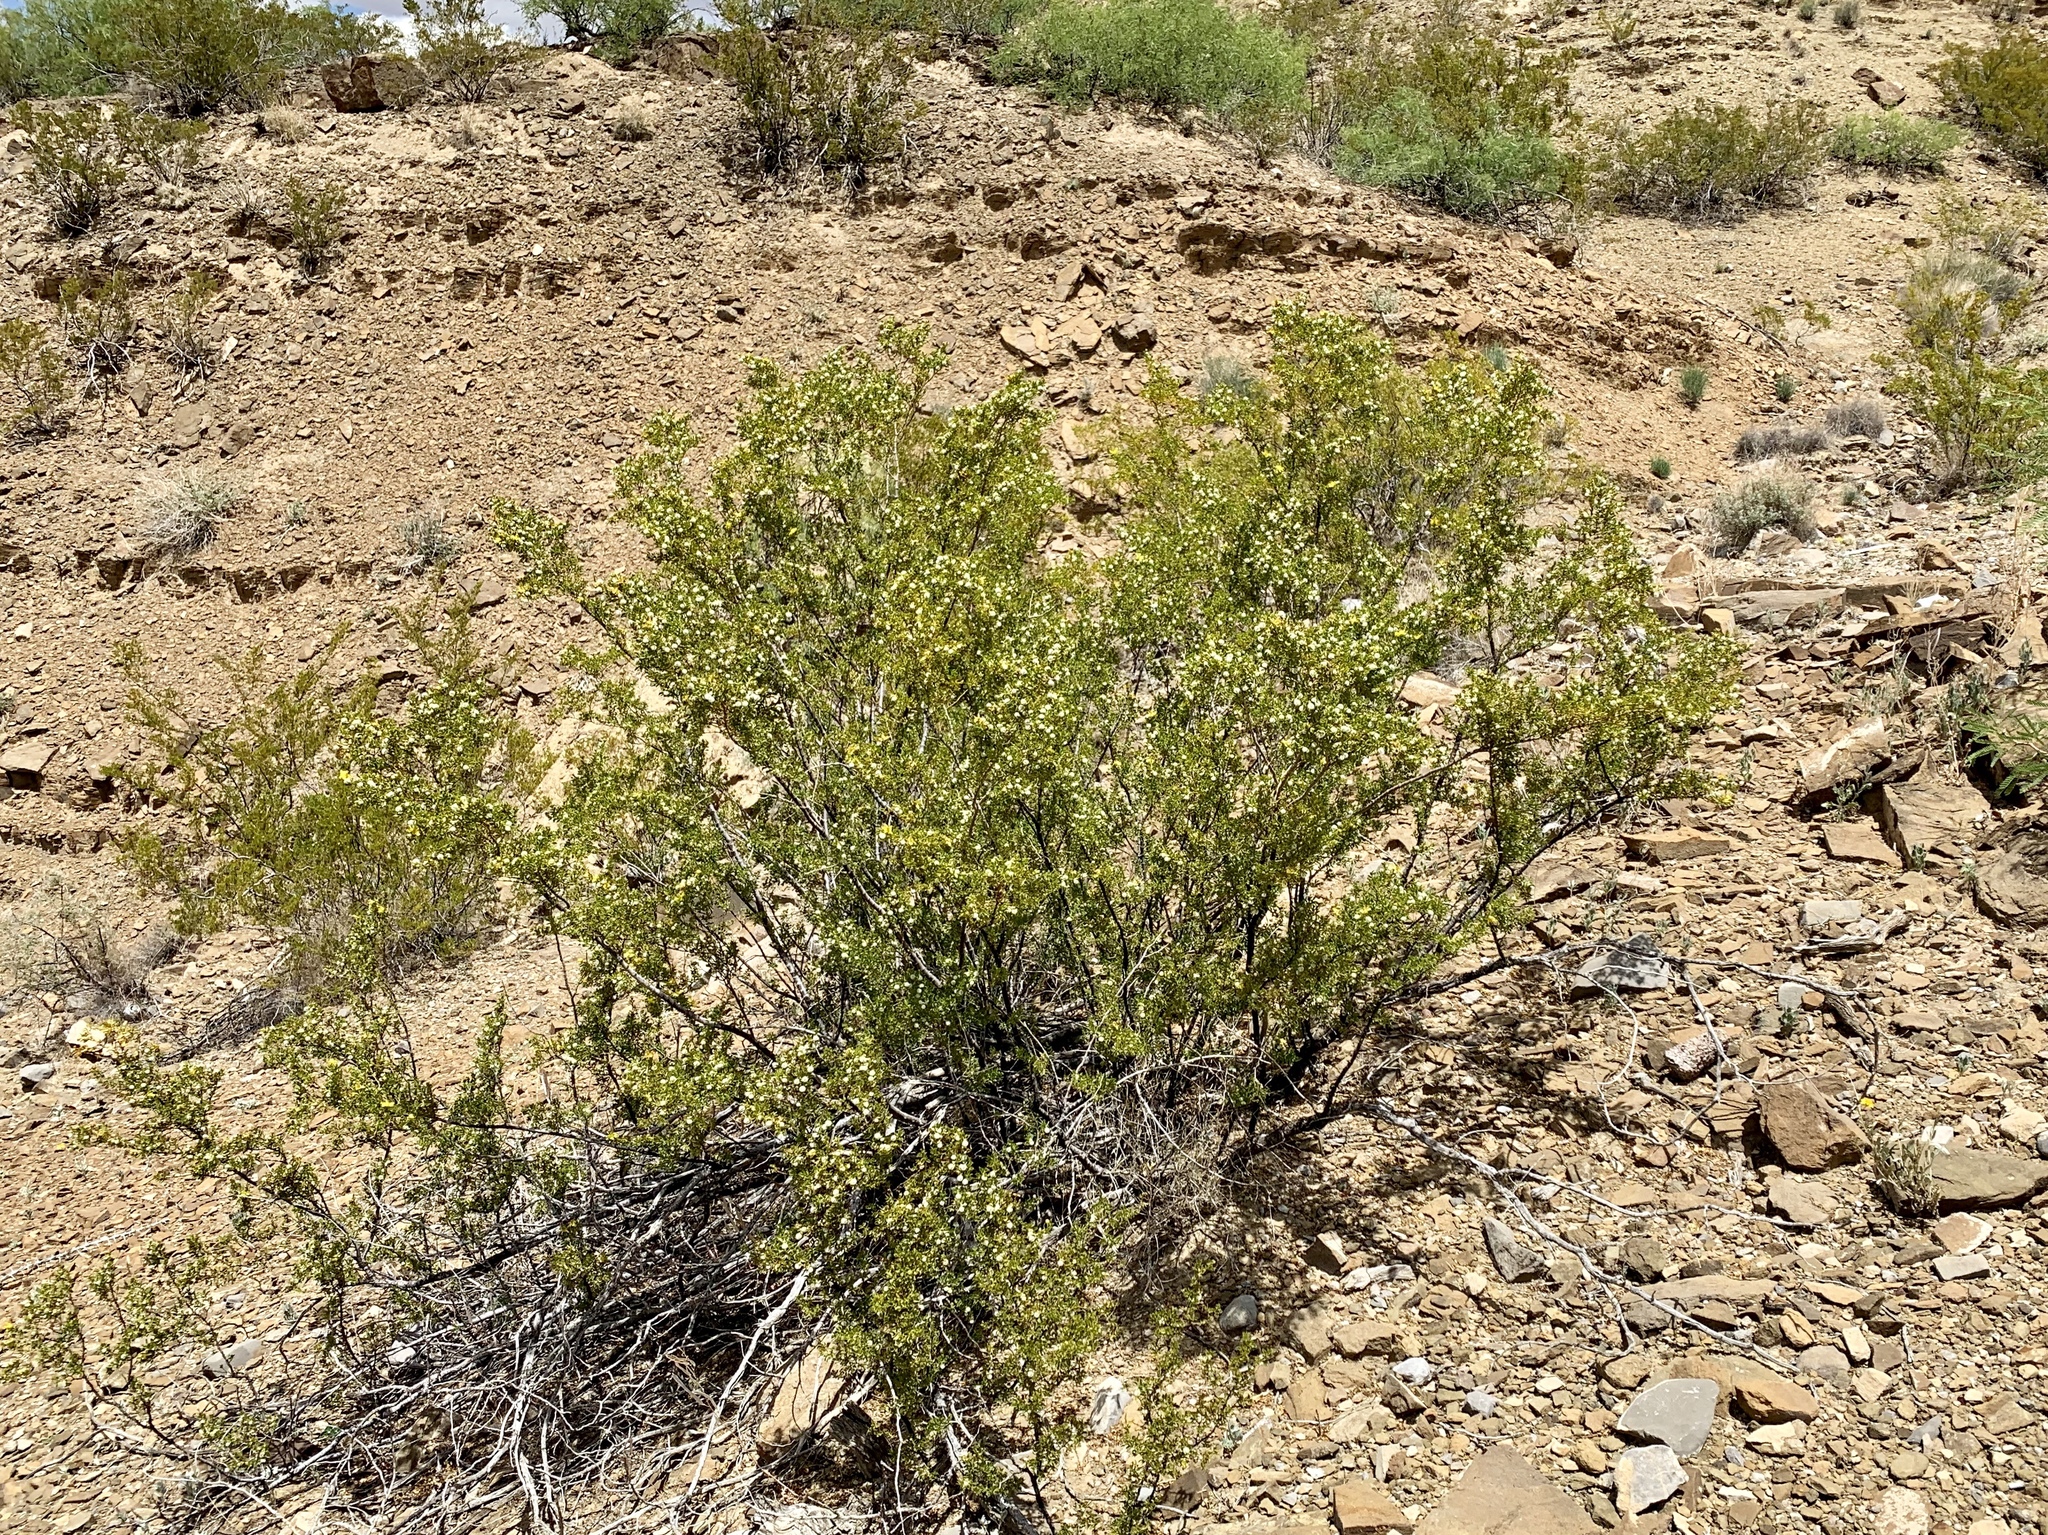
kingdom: Plantae
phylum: Tracheophyta
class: Magnoliopsida
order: Zygophyllales
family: Zygophyllaceae
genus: Larrea
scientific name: Larrea tridentata
